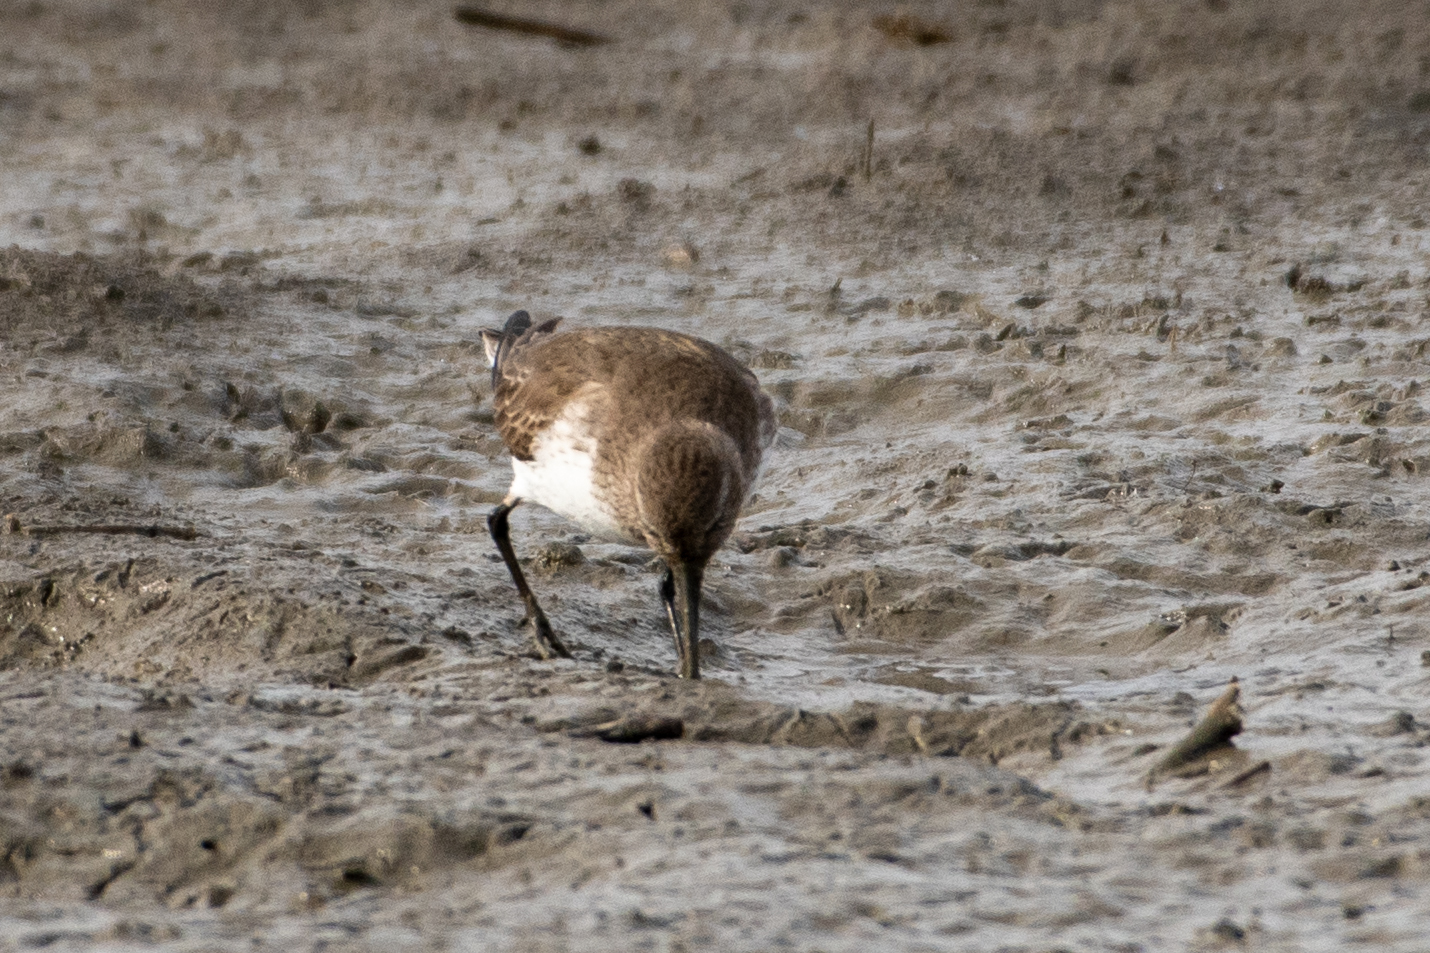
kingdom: Animalia
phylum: Chordata
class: Aves
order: Charadriiformes
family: Scolopacidae
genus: Calidris
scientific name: Calidris alpina
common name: Dunlin
